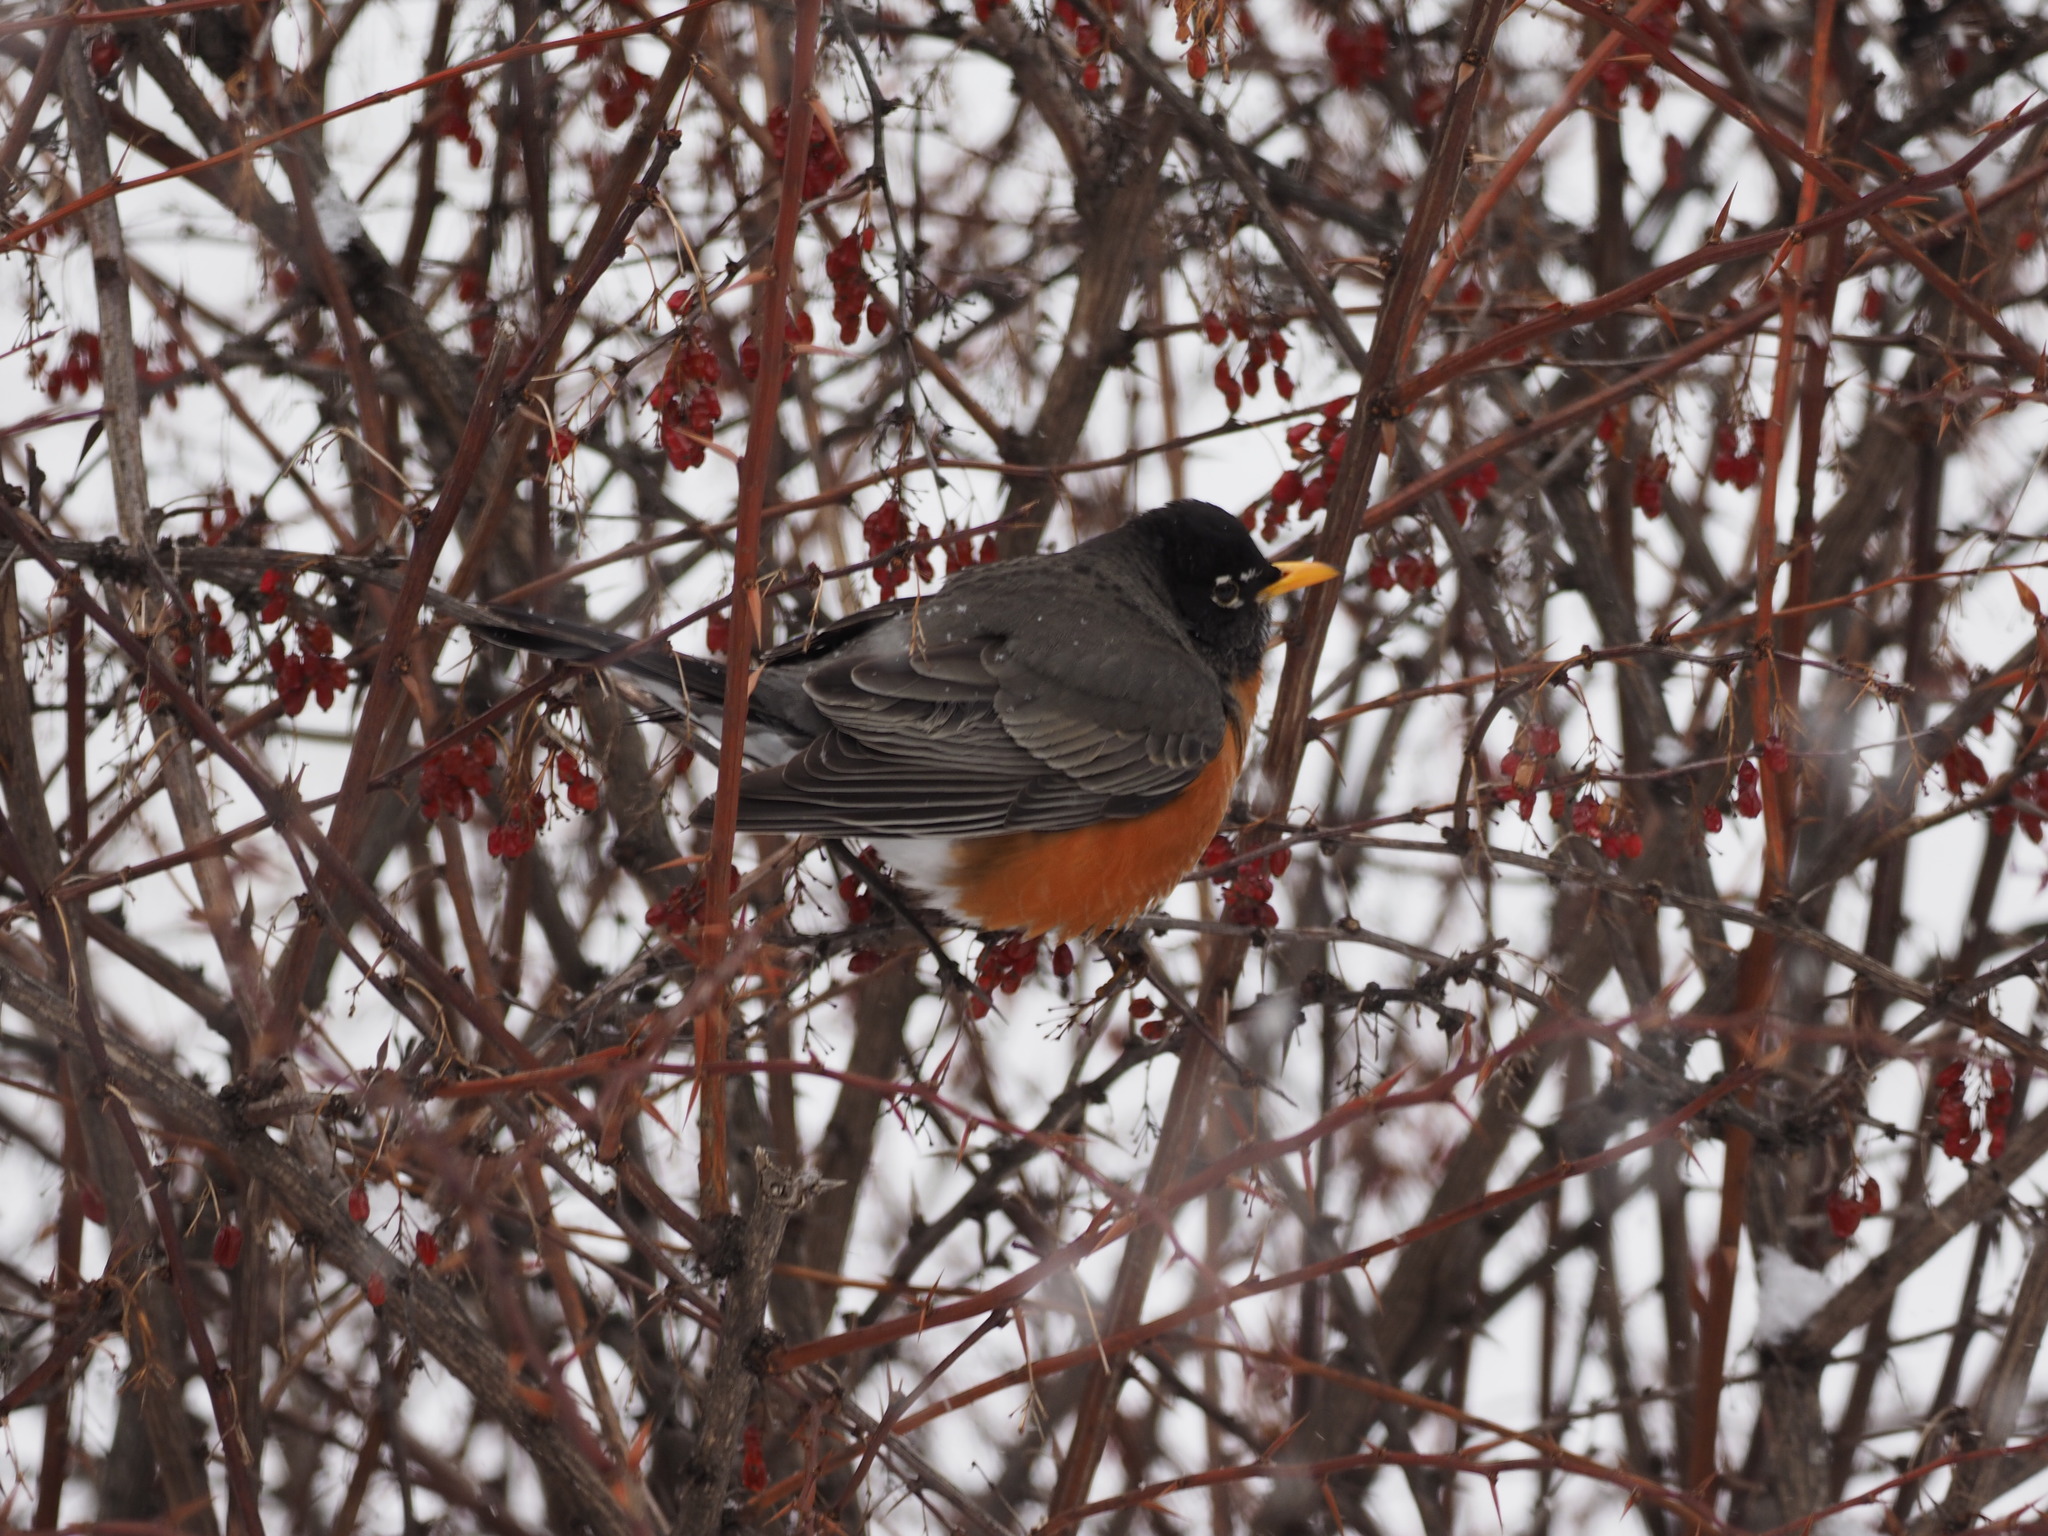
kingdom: Animalia
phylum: Chordata
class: Aves
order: Passeriformes
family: Turdidae
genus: Turdus
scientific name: Turdus migratorius
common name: American robin
